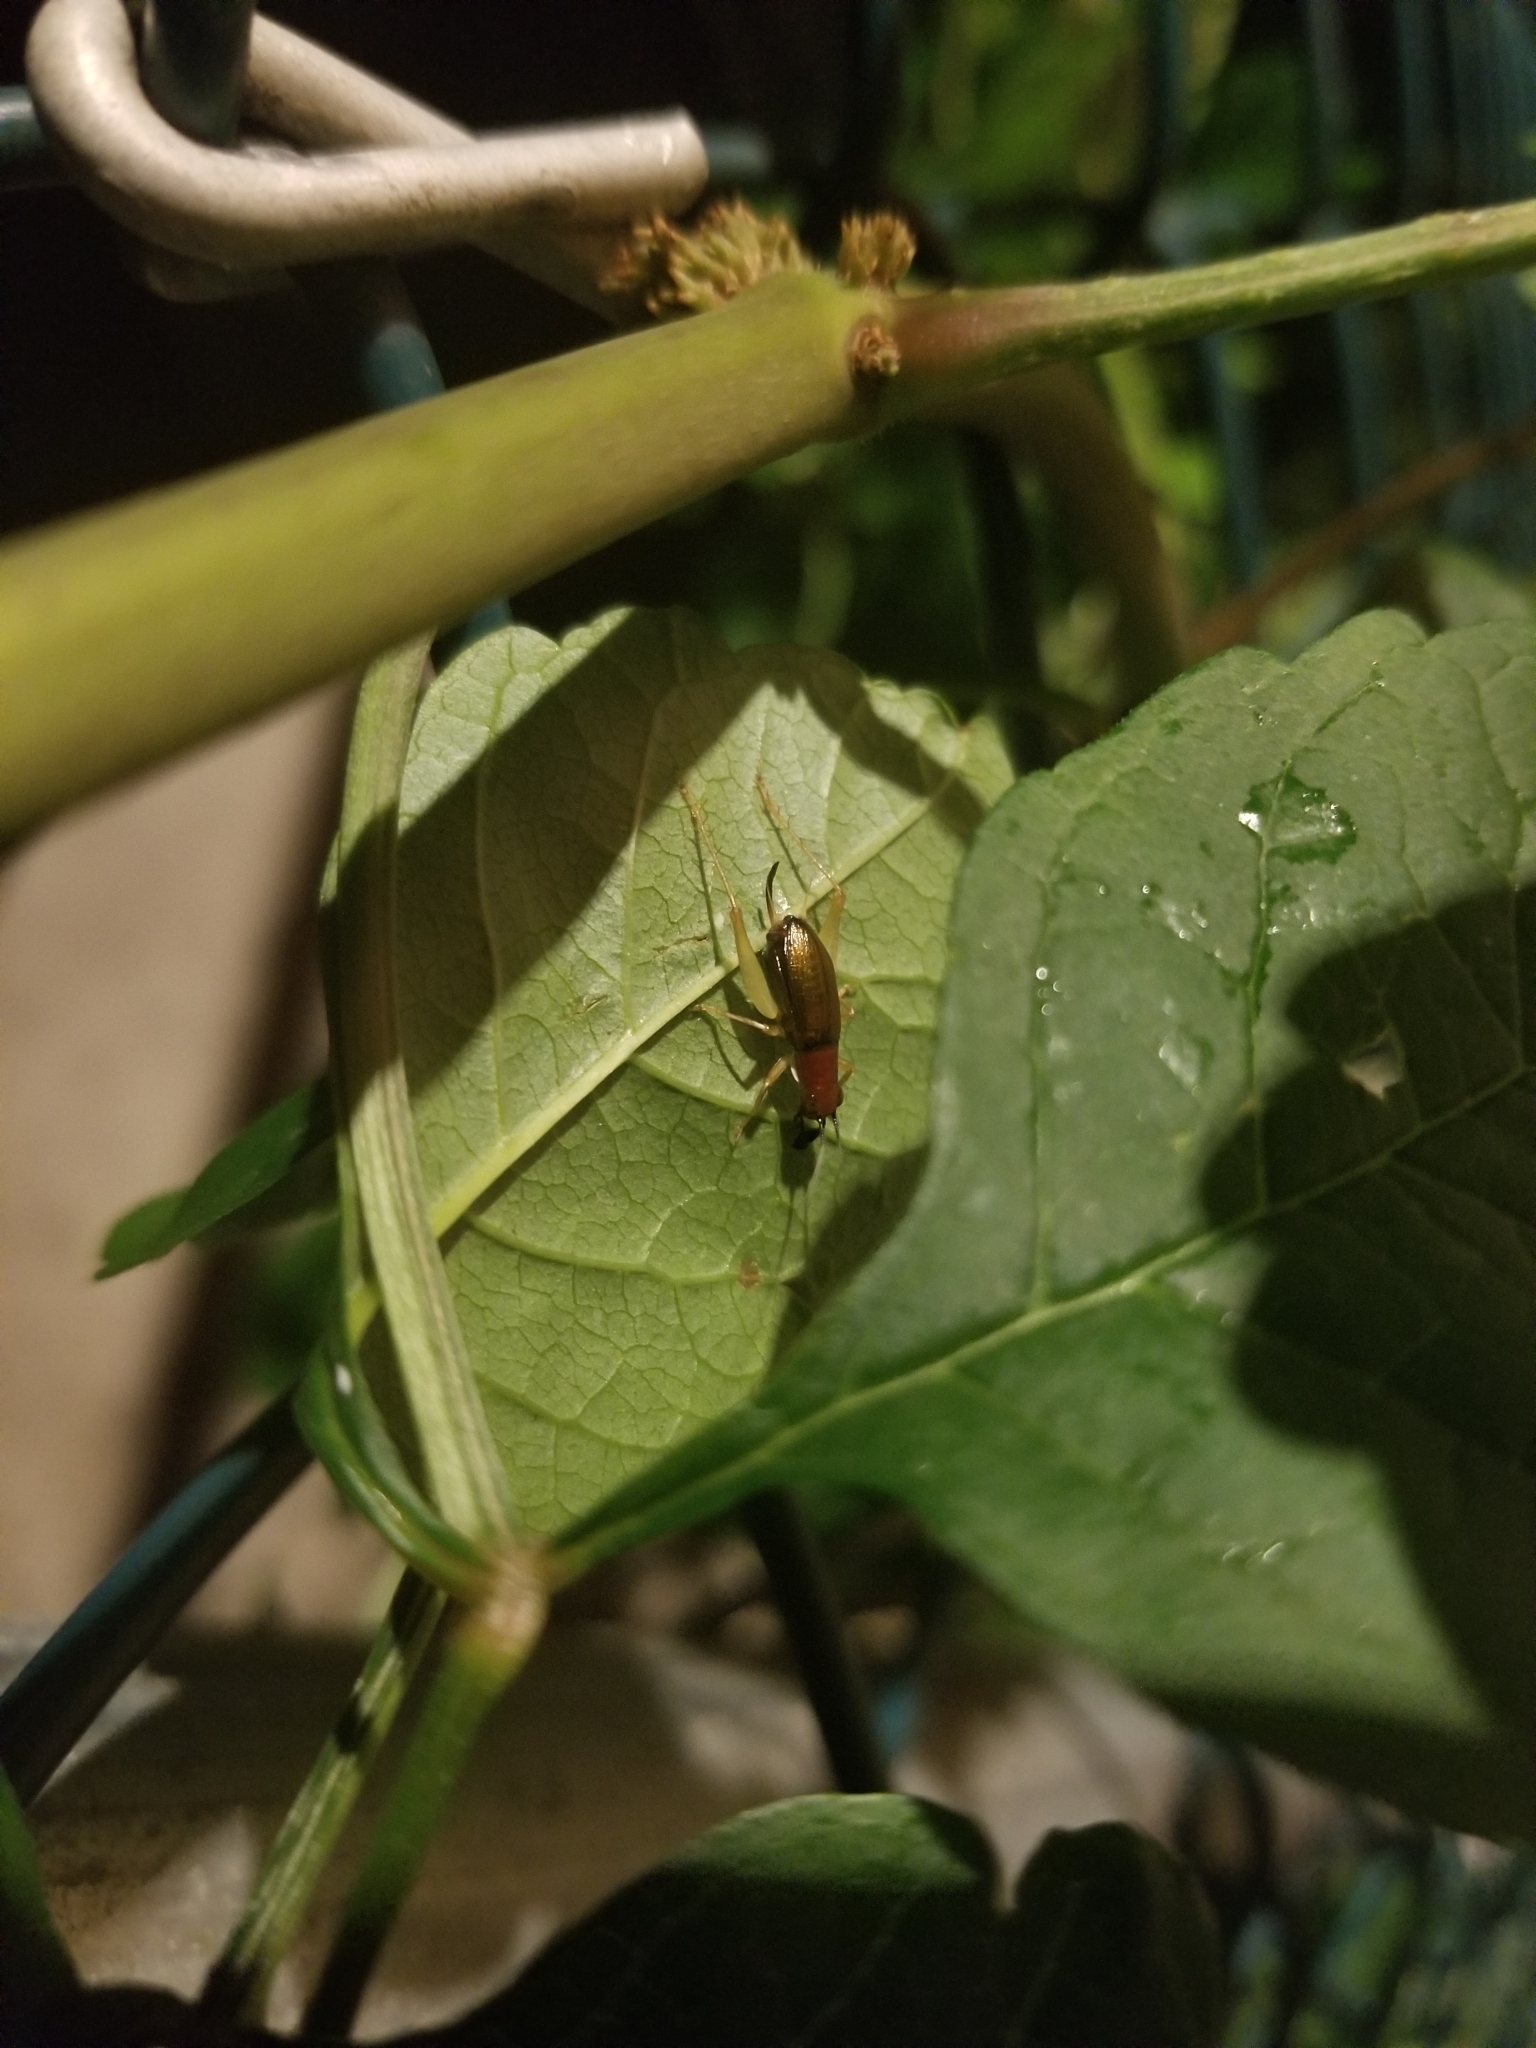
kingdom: Animalia
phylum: Arthropoda
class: Insecta
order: Orthoptera
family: Trigonidiidae
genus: Phyllopalpus
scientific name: Phyllopalpus pulchellus
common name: Handsome trig
